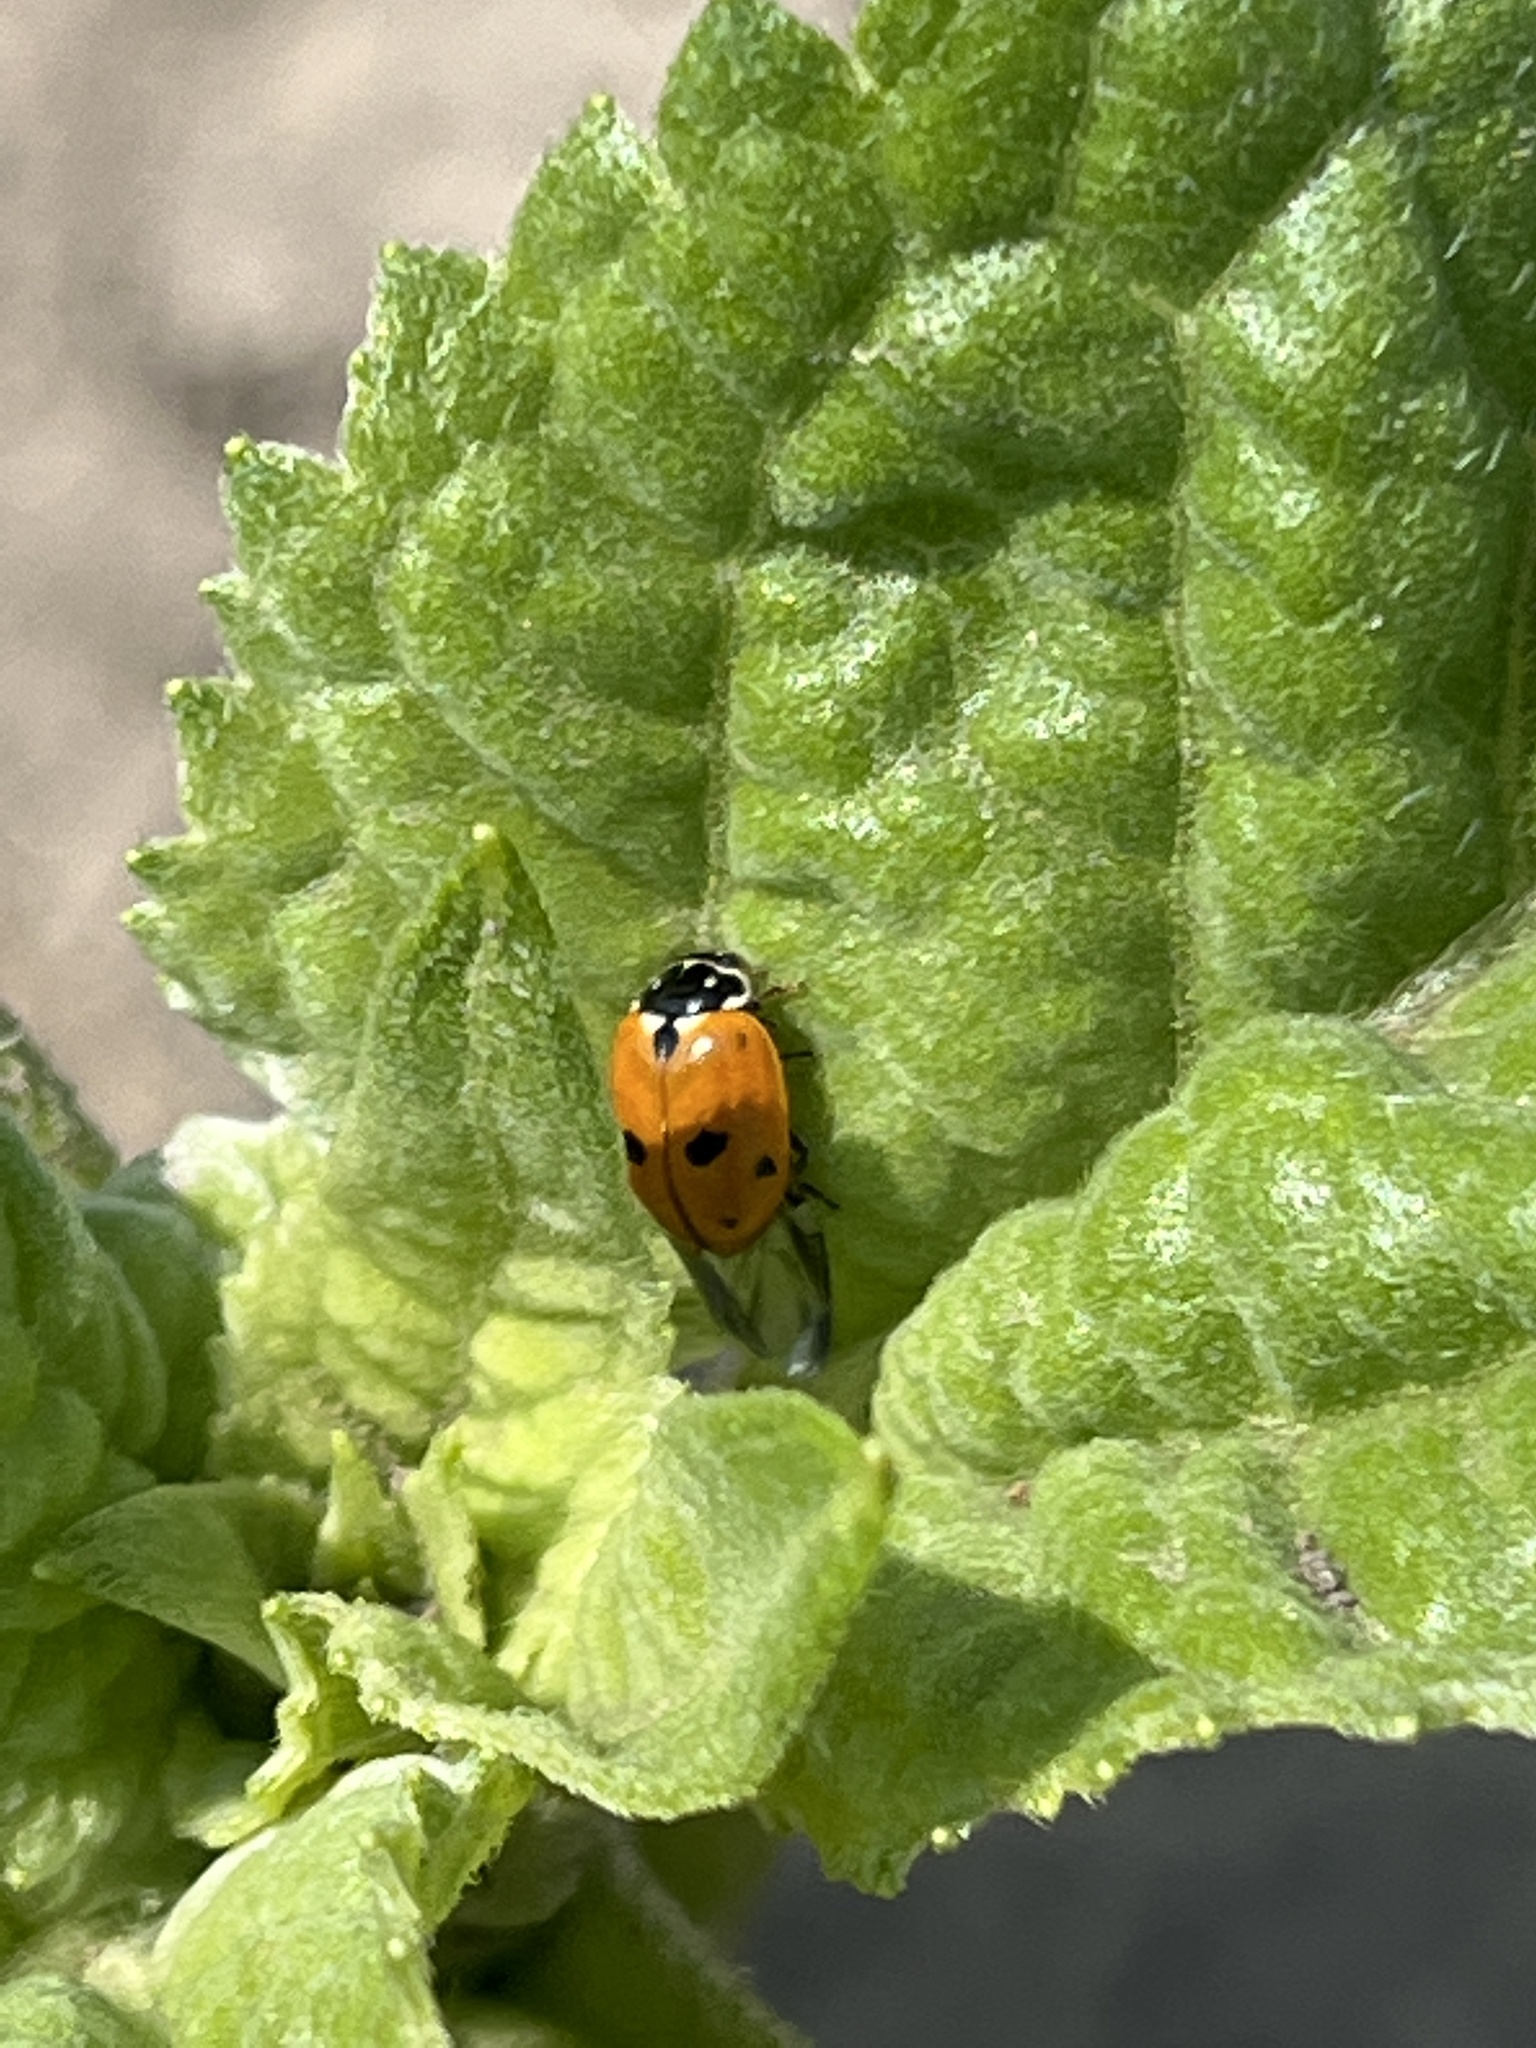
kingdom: Animalia
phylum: Arthropoda
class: Insecta
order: Coleoptera
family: Coccinellidae
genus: Hippodamia
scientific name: Hippodamia variegata
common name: Ladybird beetle
